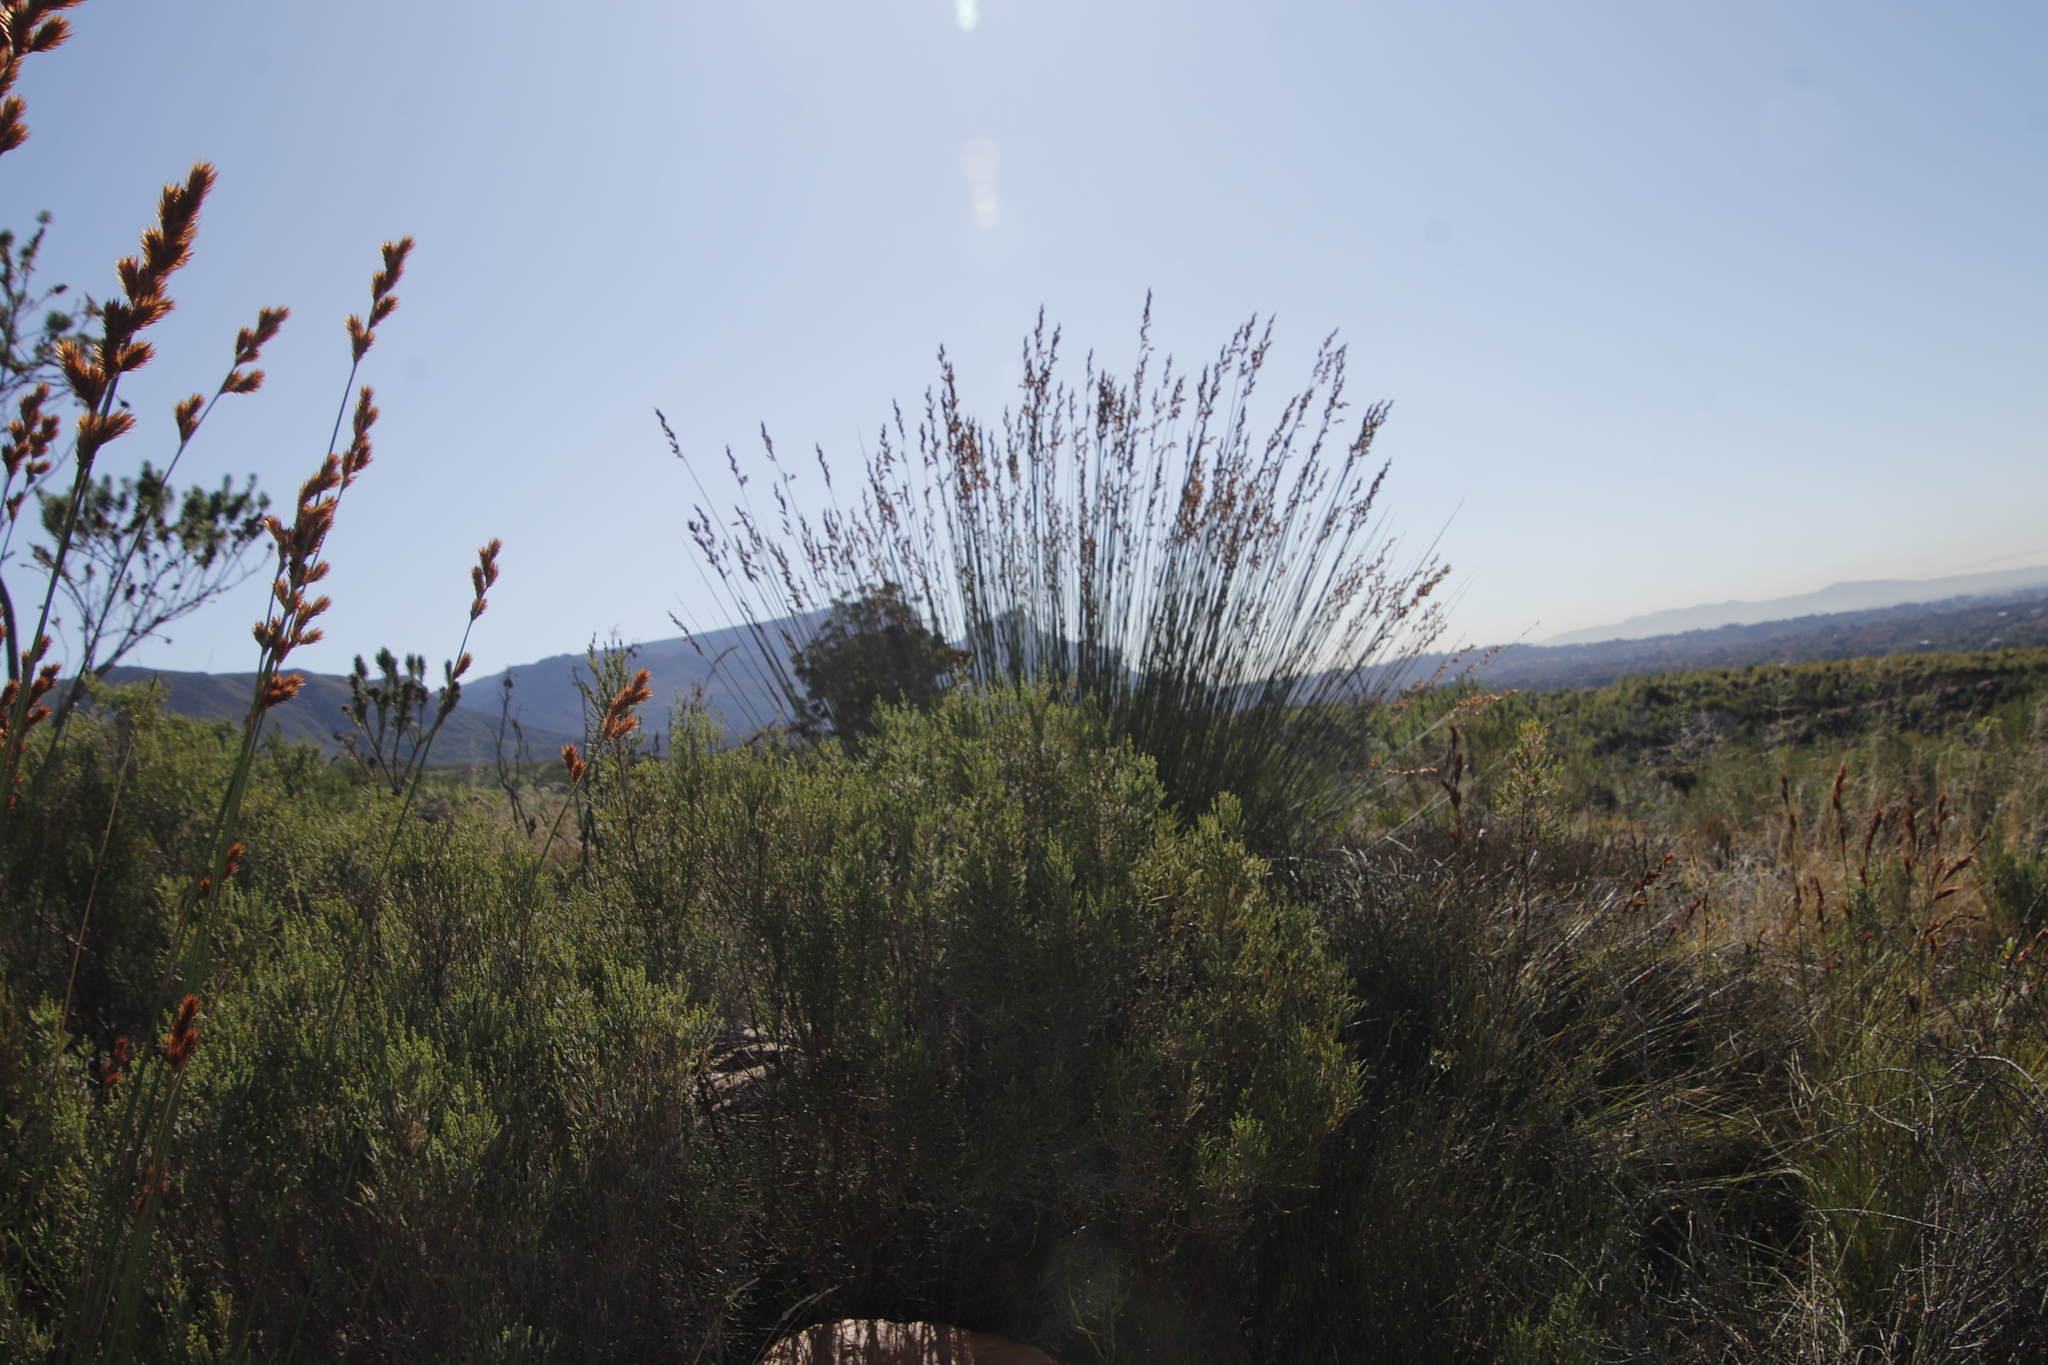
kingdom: Plantae
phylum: Tracheophyta
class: Liliopsida
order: Poales
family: Restionaceae
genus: Thamnochortus
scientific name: Thamnochortus insignis
